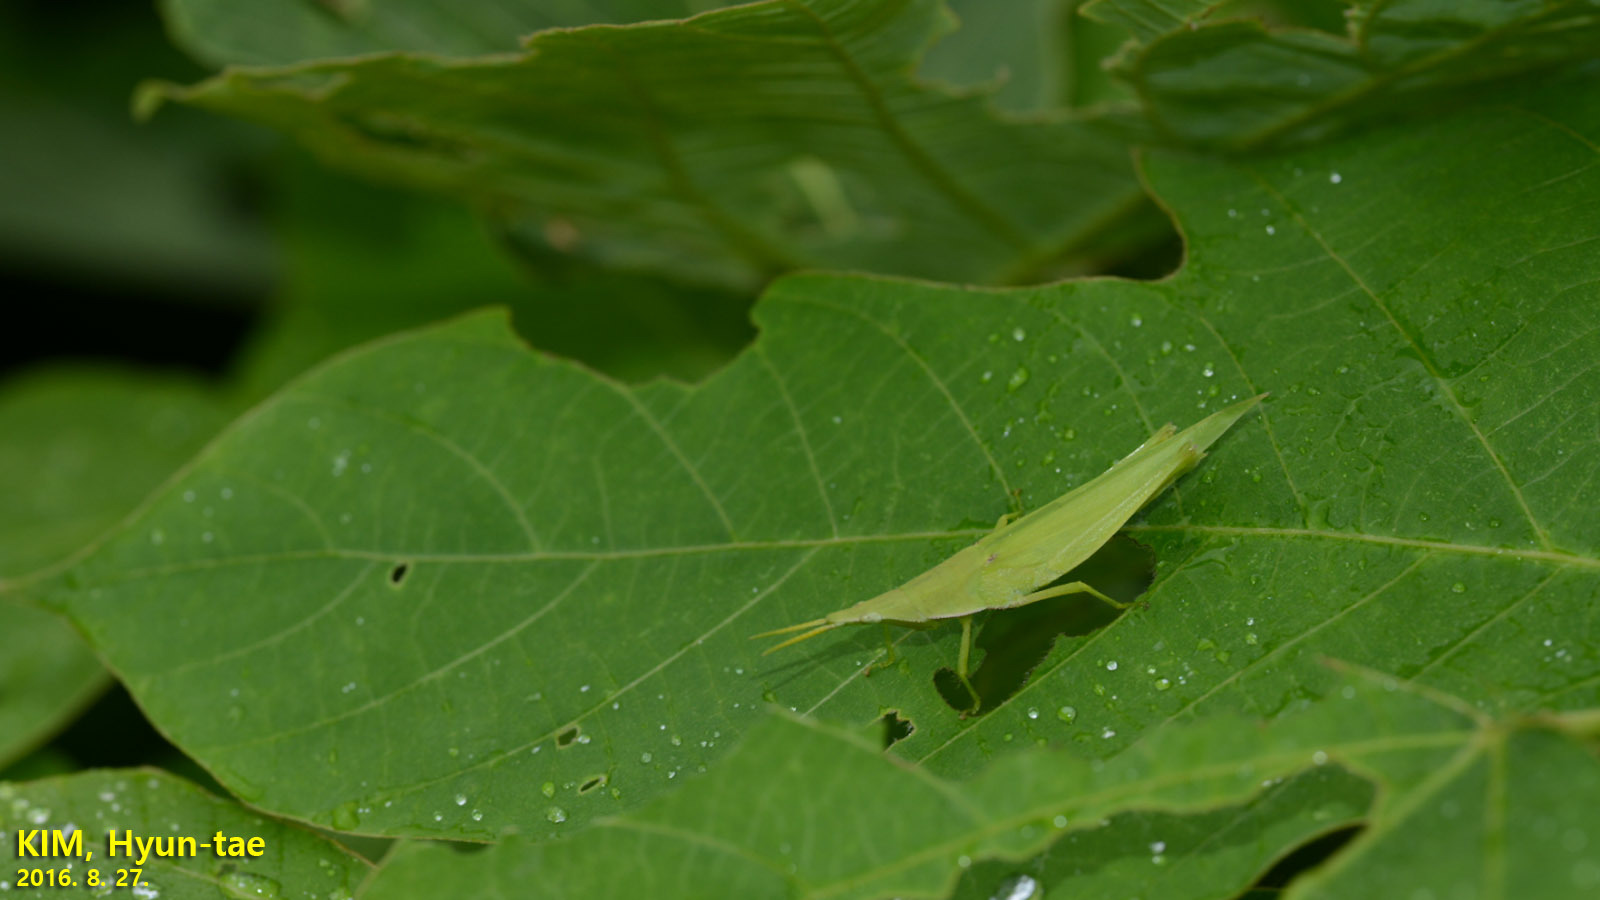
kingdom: Animalia
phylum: Arthropoda
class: Insecta
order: Orthoptera
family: Pyrgomorphidae
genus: Atractomorpha
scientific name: Atractomorpha lata
